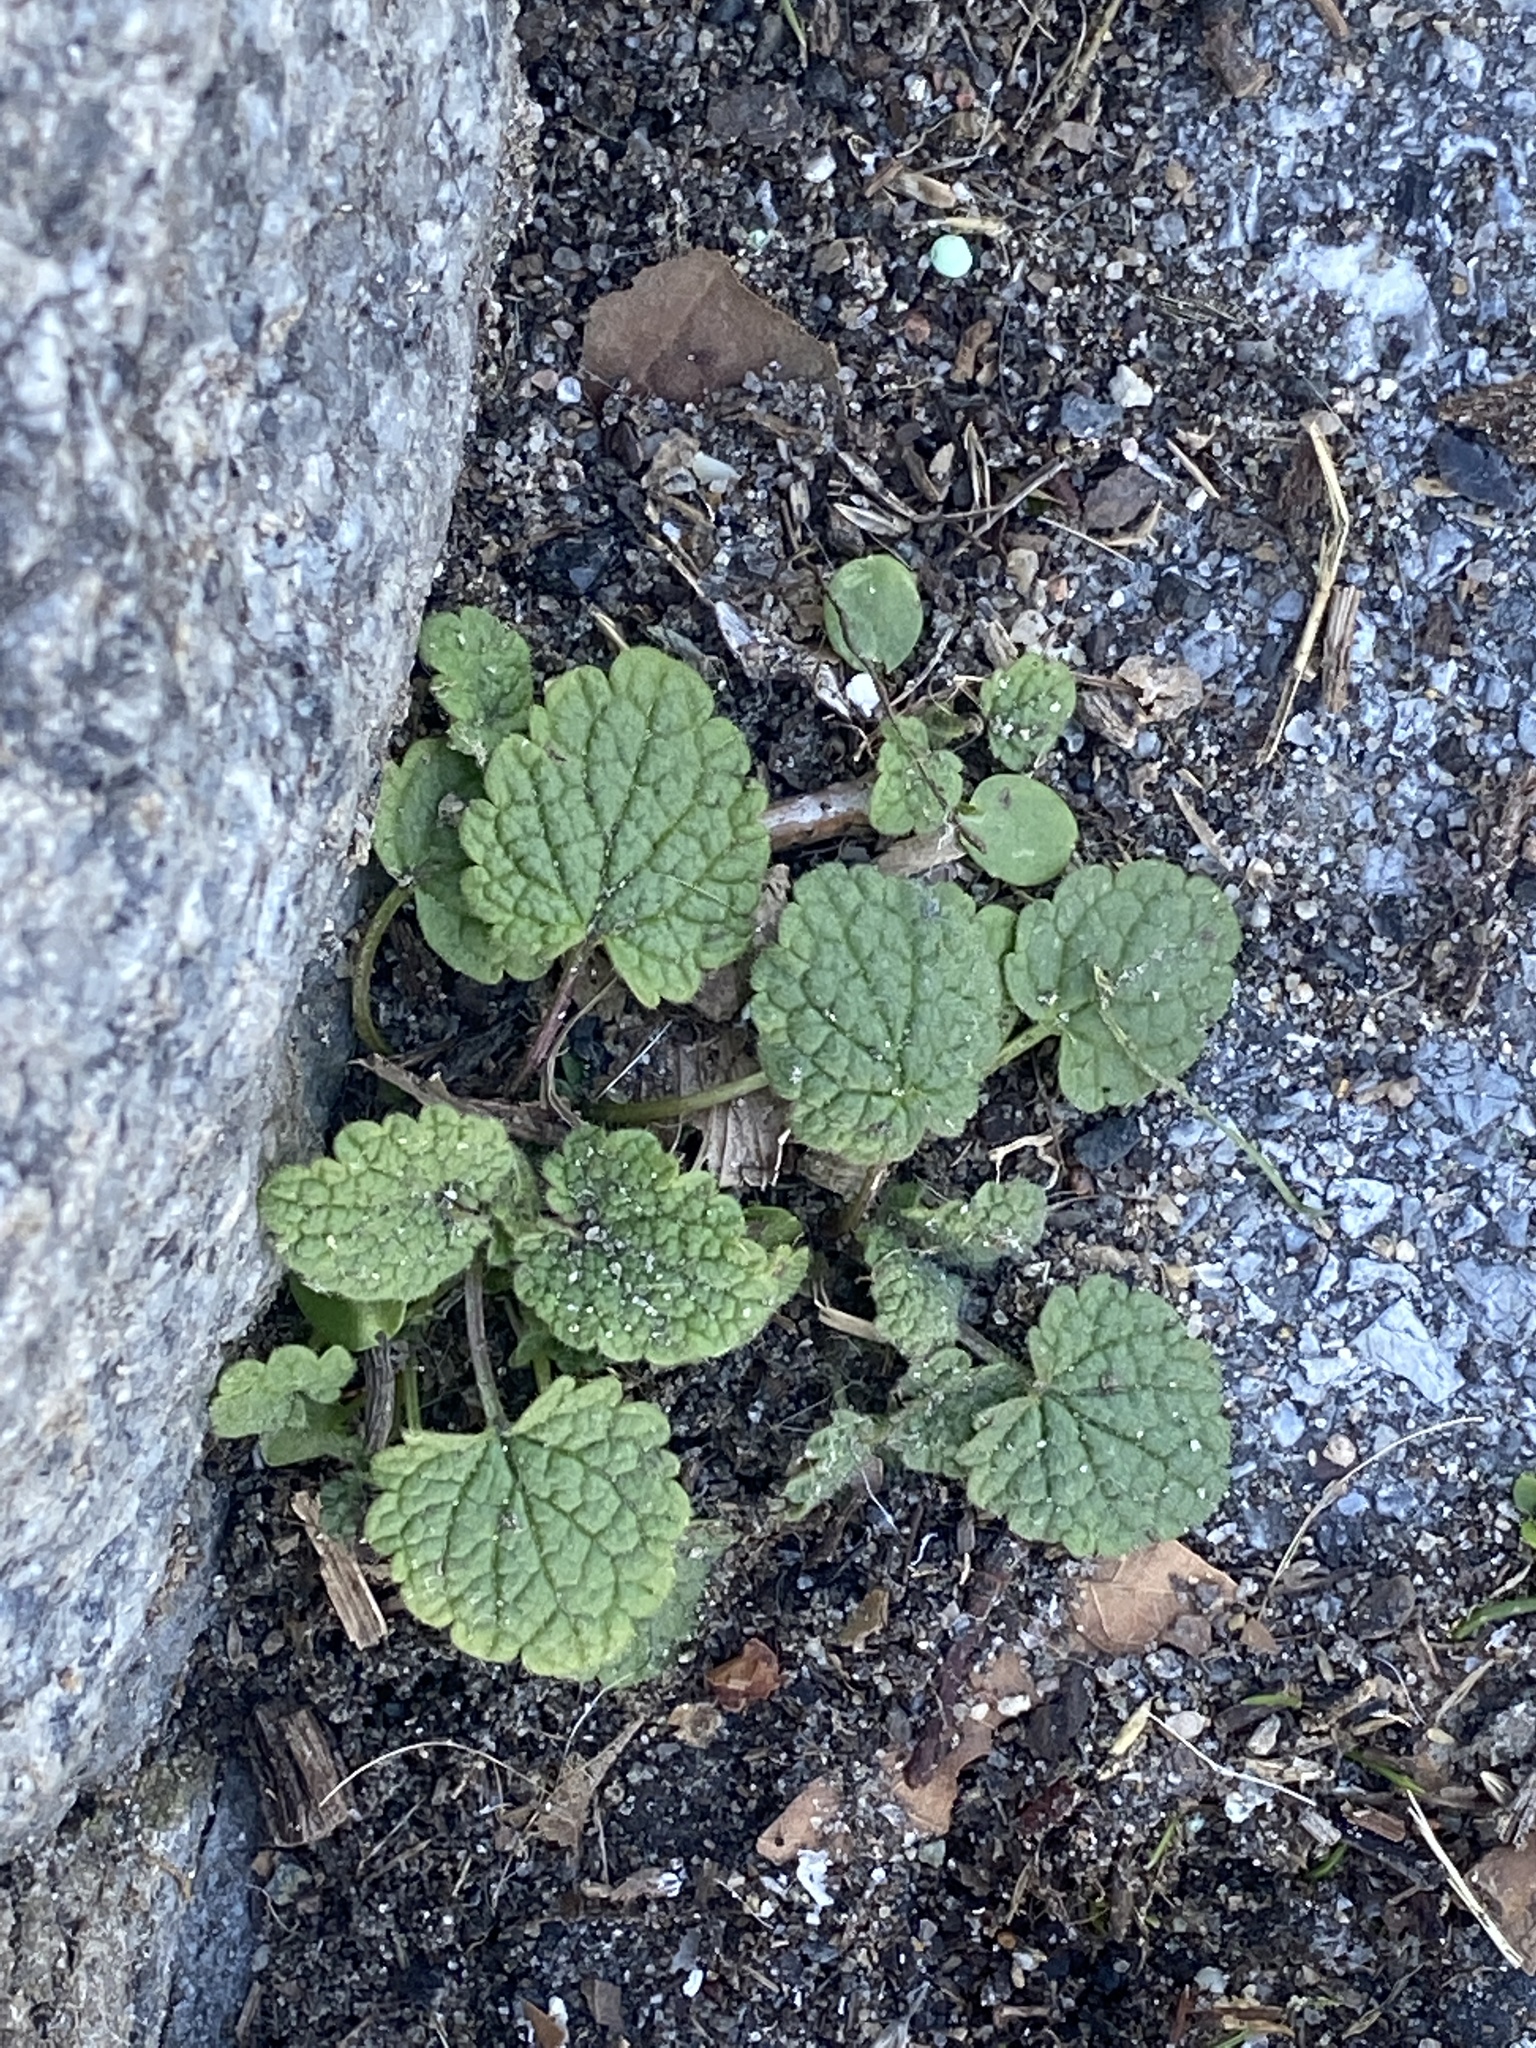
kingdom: Plantae
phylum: Tracheophyta
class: Magnoliopsida
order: Lamiales
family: Lamiaceae
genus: Lamium
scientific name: Lamium purpureum
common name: Red dead-nettle
